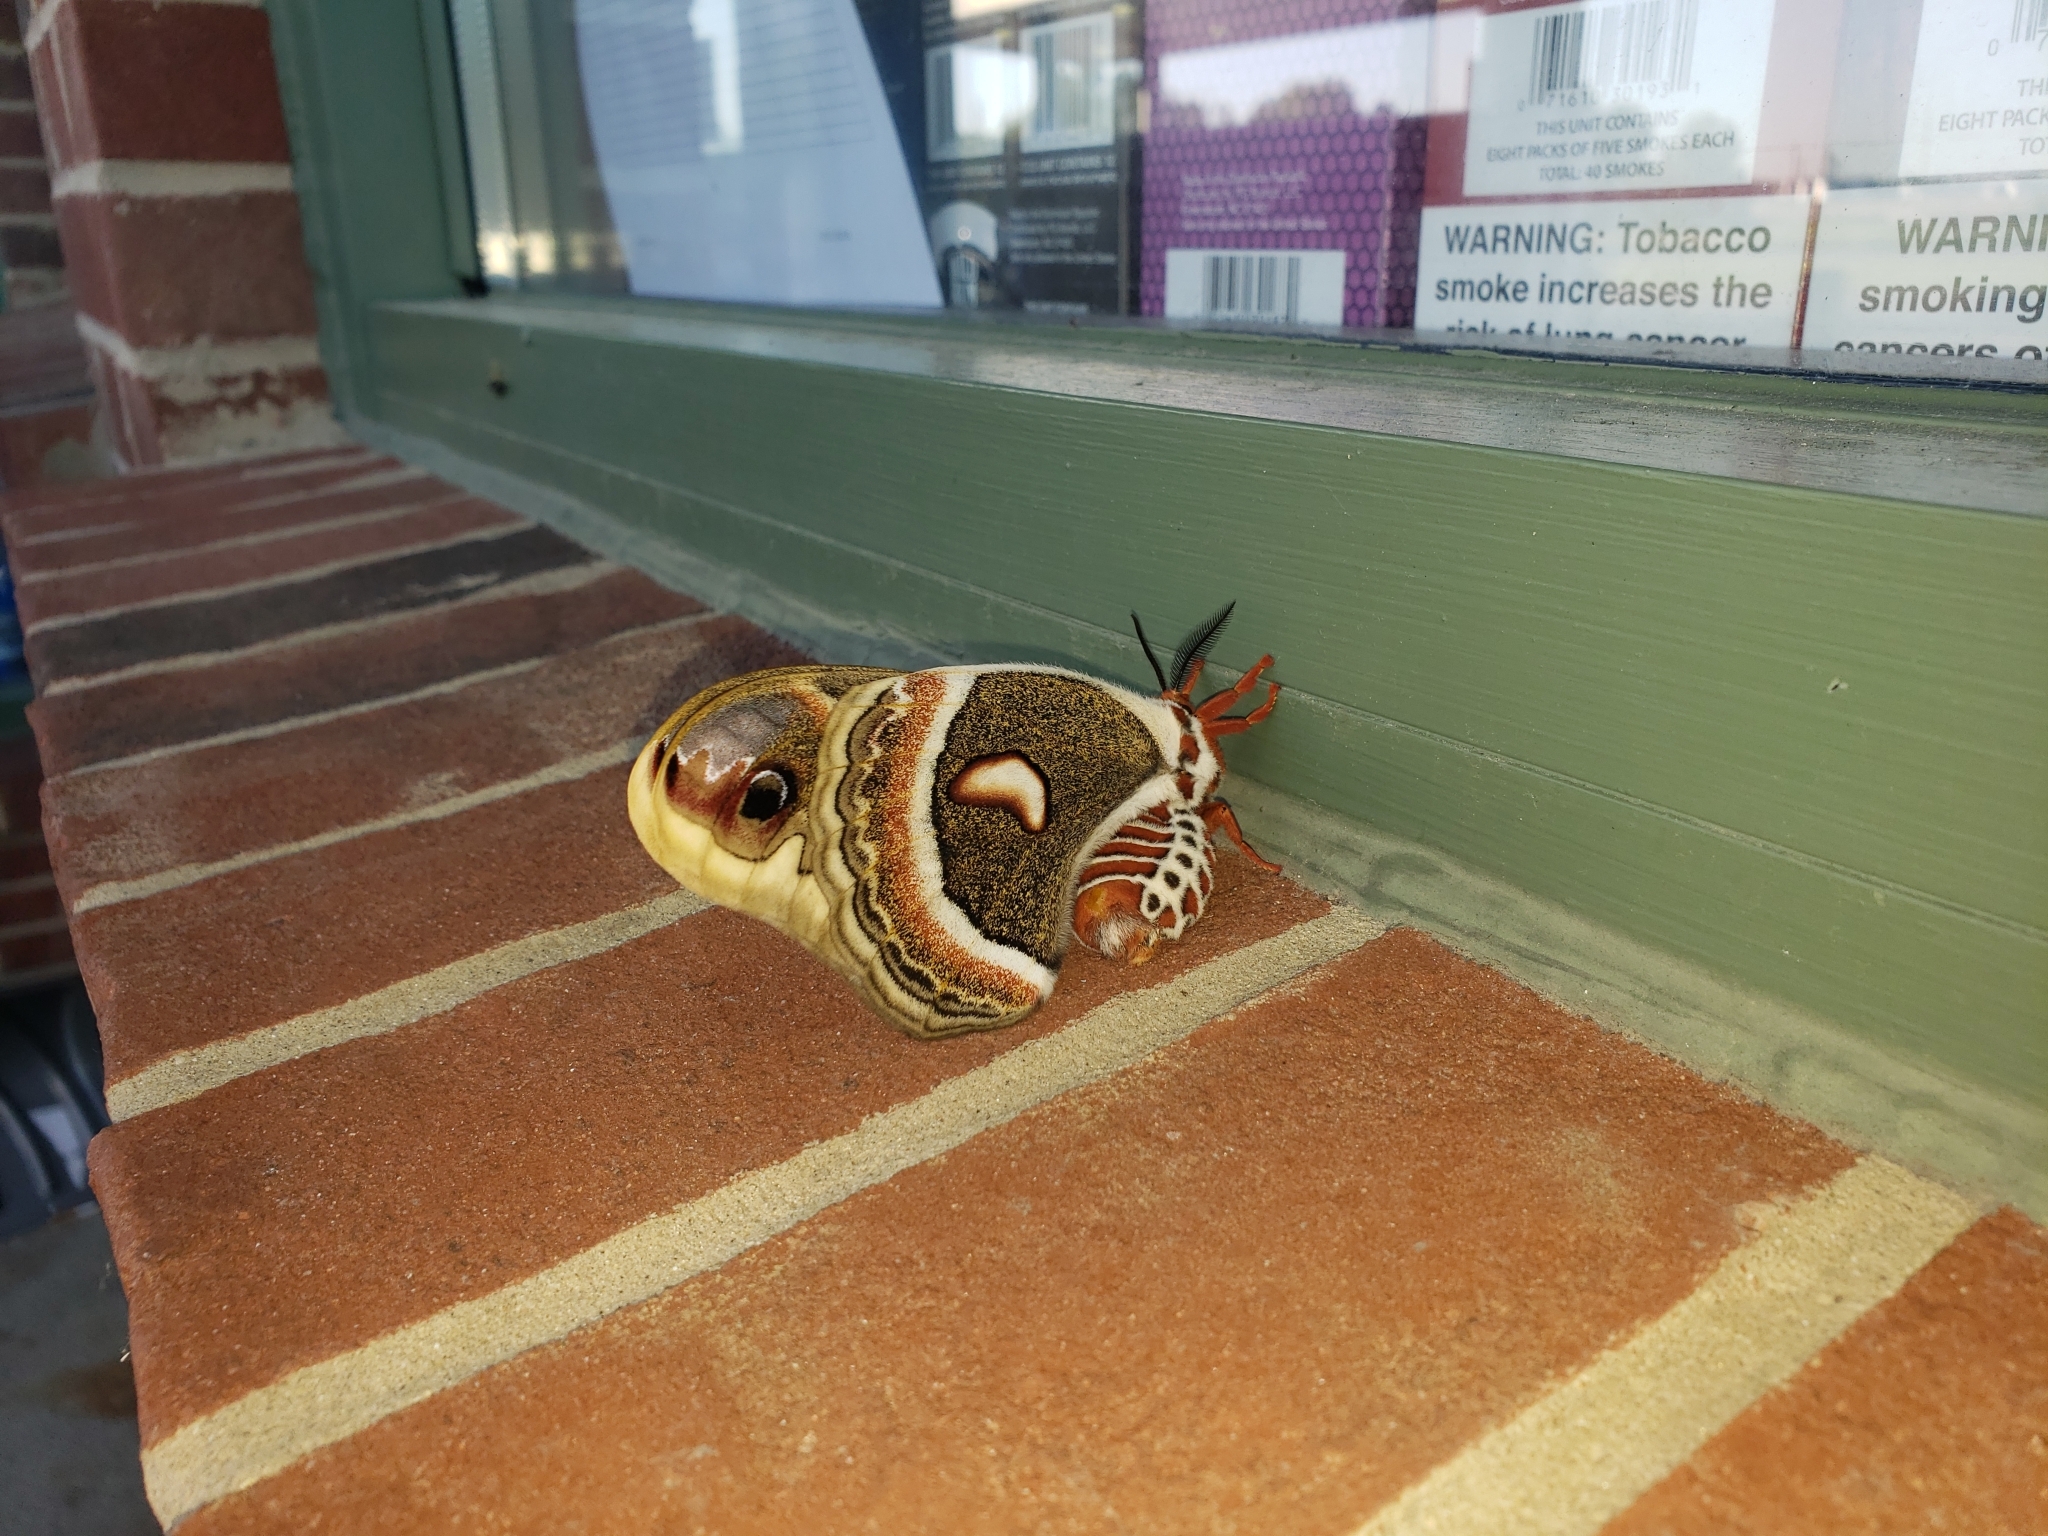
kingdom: Animalia
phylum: Arthropoda
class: Insecta
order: Lepidoptera
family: Saturniidae
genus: Hyalophora
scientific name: Hyalophora cecropia
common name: Cecropia silkmoth
